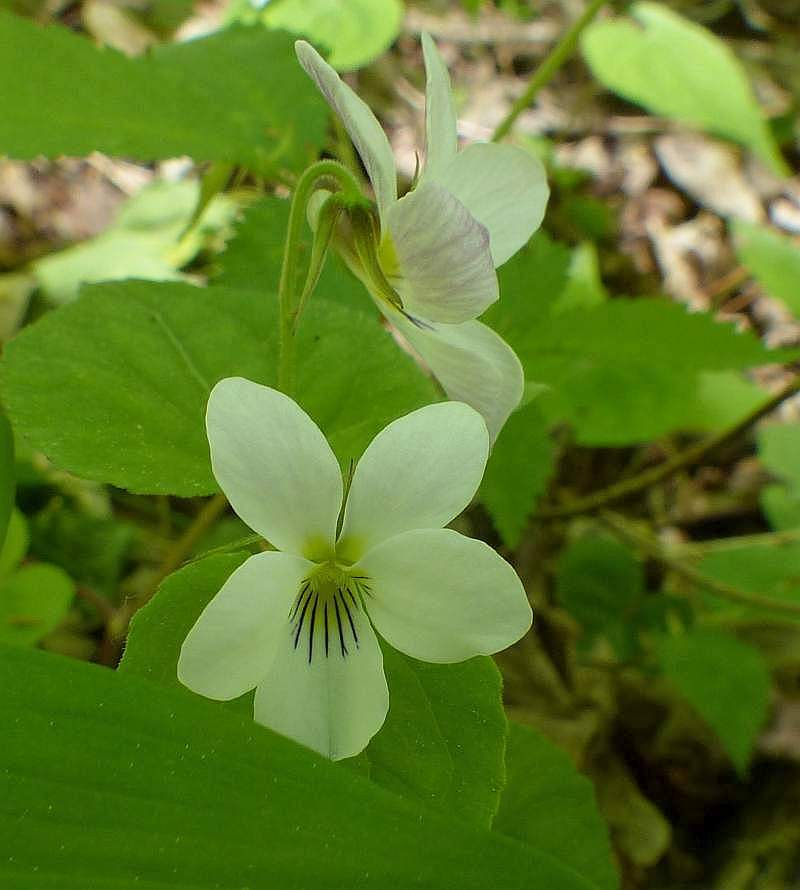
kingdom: Plantae
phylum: Tracheophyta
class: Magnoliopsida
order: Malpighiales
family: Violaceae
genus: Viola
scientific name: Viola canadensis
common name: Canada violet
